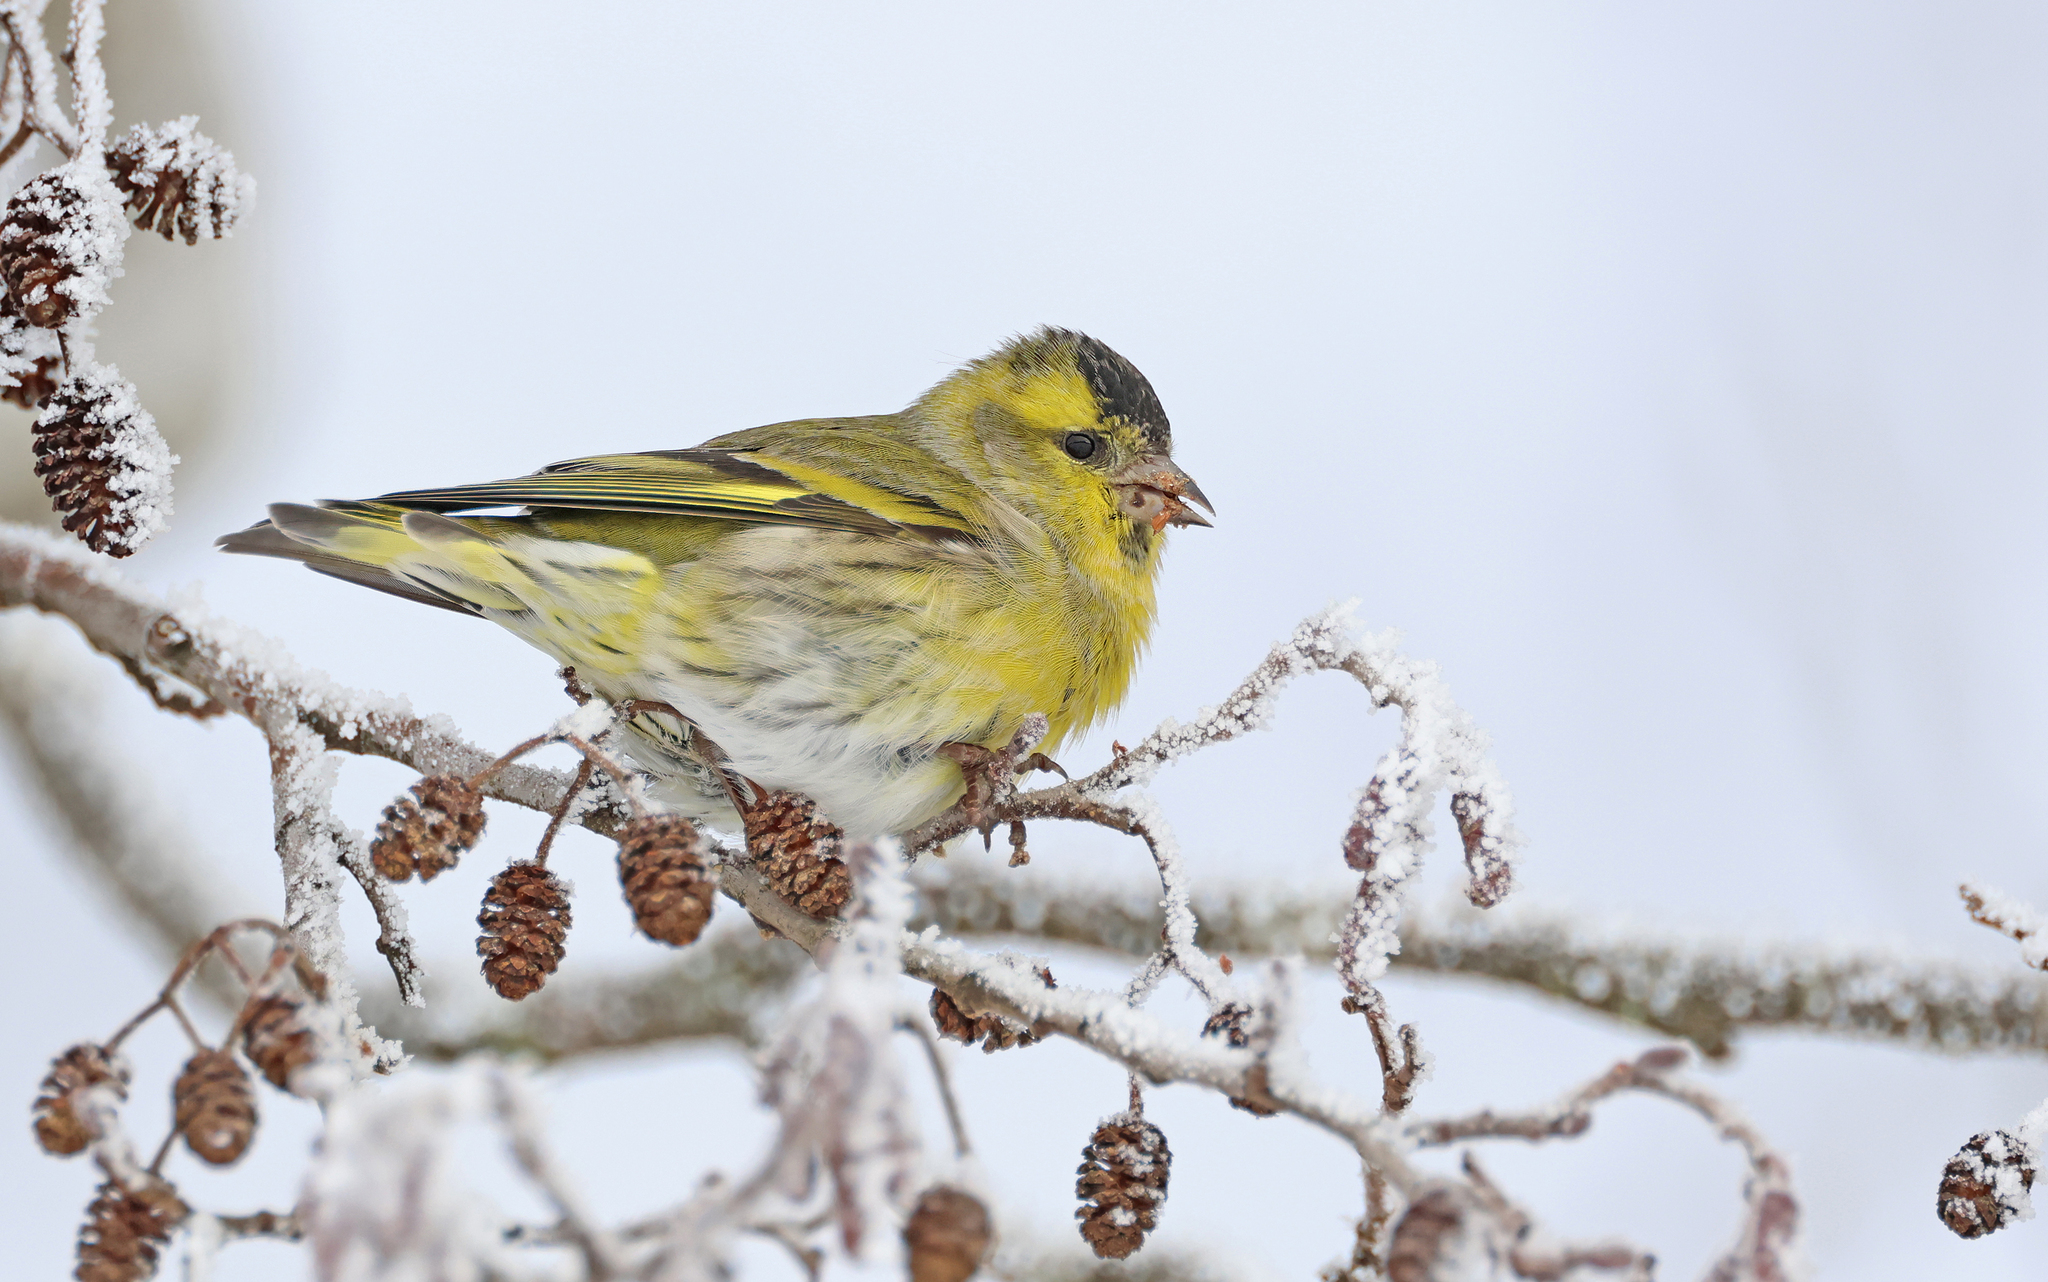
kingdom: Animalia
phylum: Chordata
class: Aves
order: Passeriformes
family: Fringillidae
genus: Spinus
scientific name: Spinus spinus
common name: Eurasian siskin
